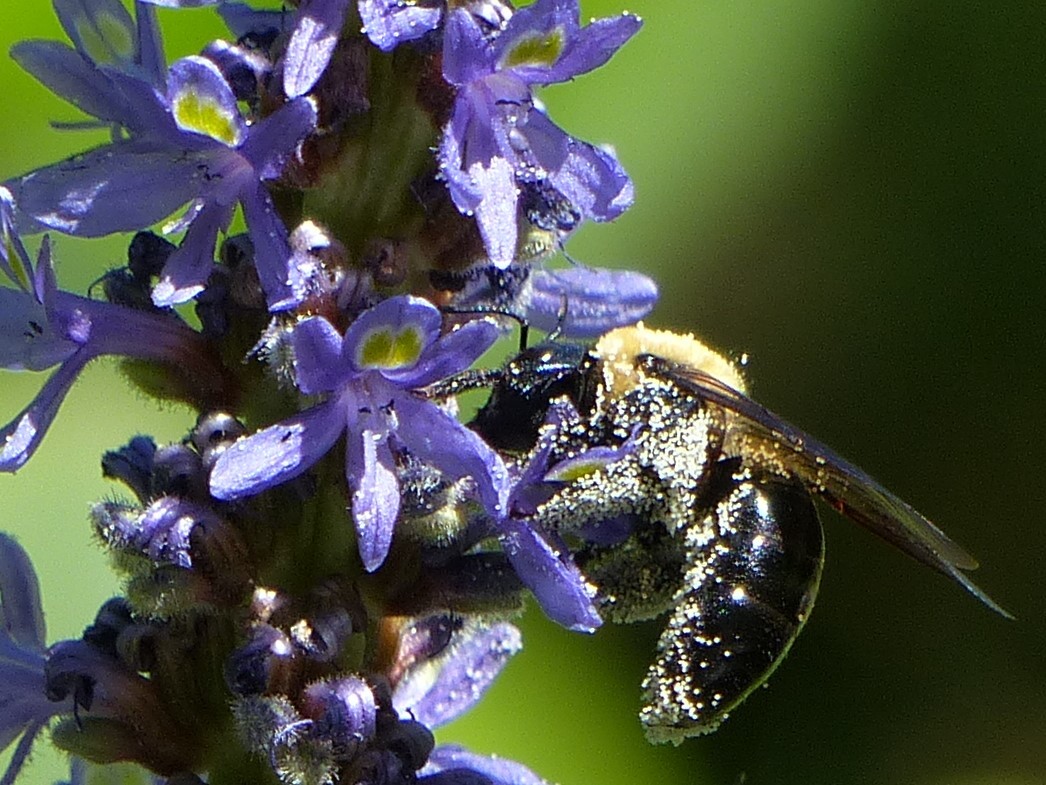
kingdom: Animalia
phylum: Arthropoda
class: Insecta
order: Hymenoptera
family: Apidae
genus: Xylocopa
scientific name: Xylocopa virginica
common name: Carpenter bee
